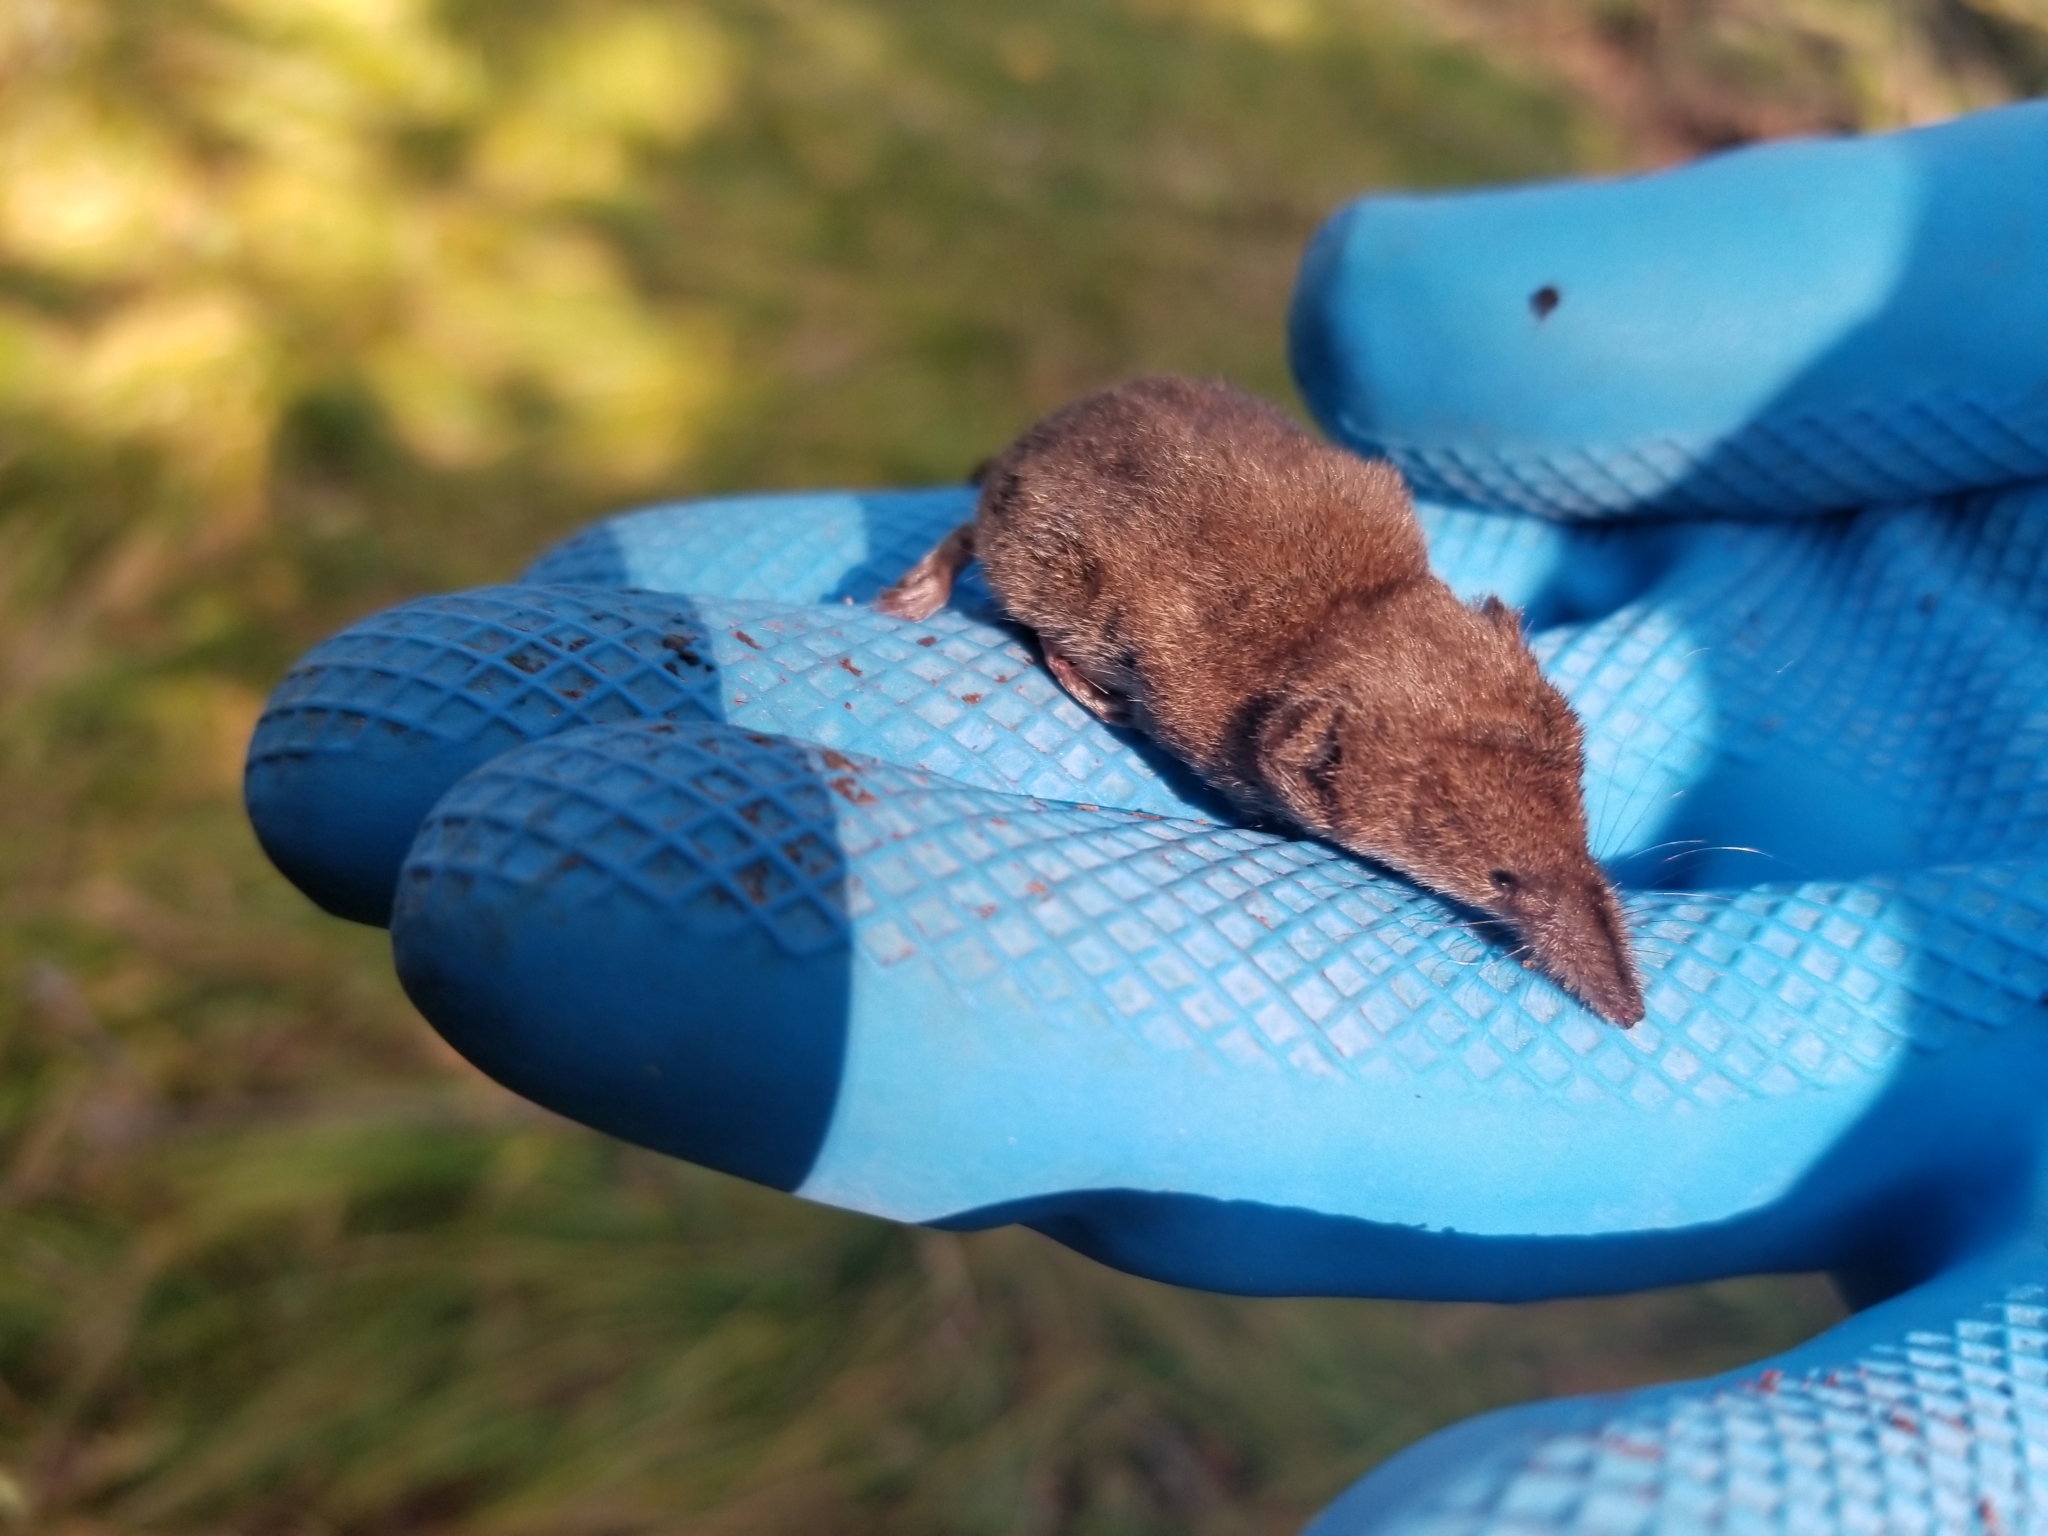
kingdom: Animalia
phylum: Chordata
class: Mammalia
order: Soricomorpha
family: Soricidae
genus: Sorex
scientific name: Sorex cinereus
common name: Cinereus shrew
